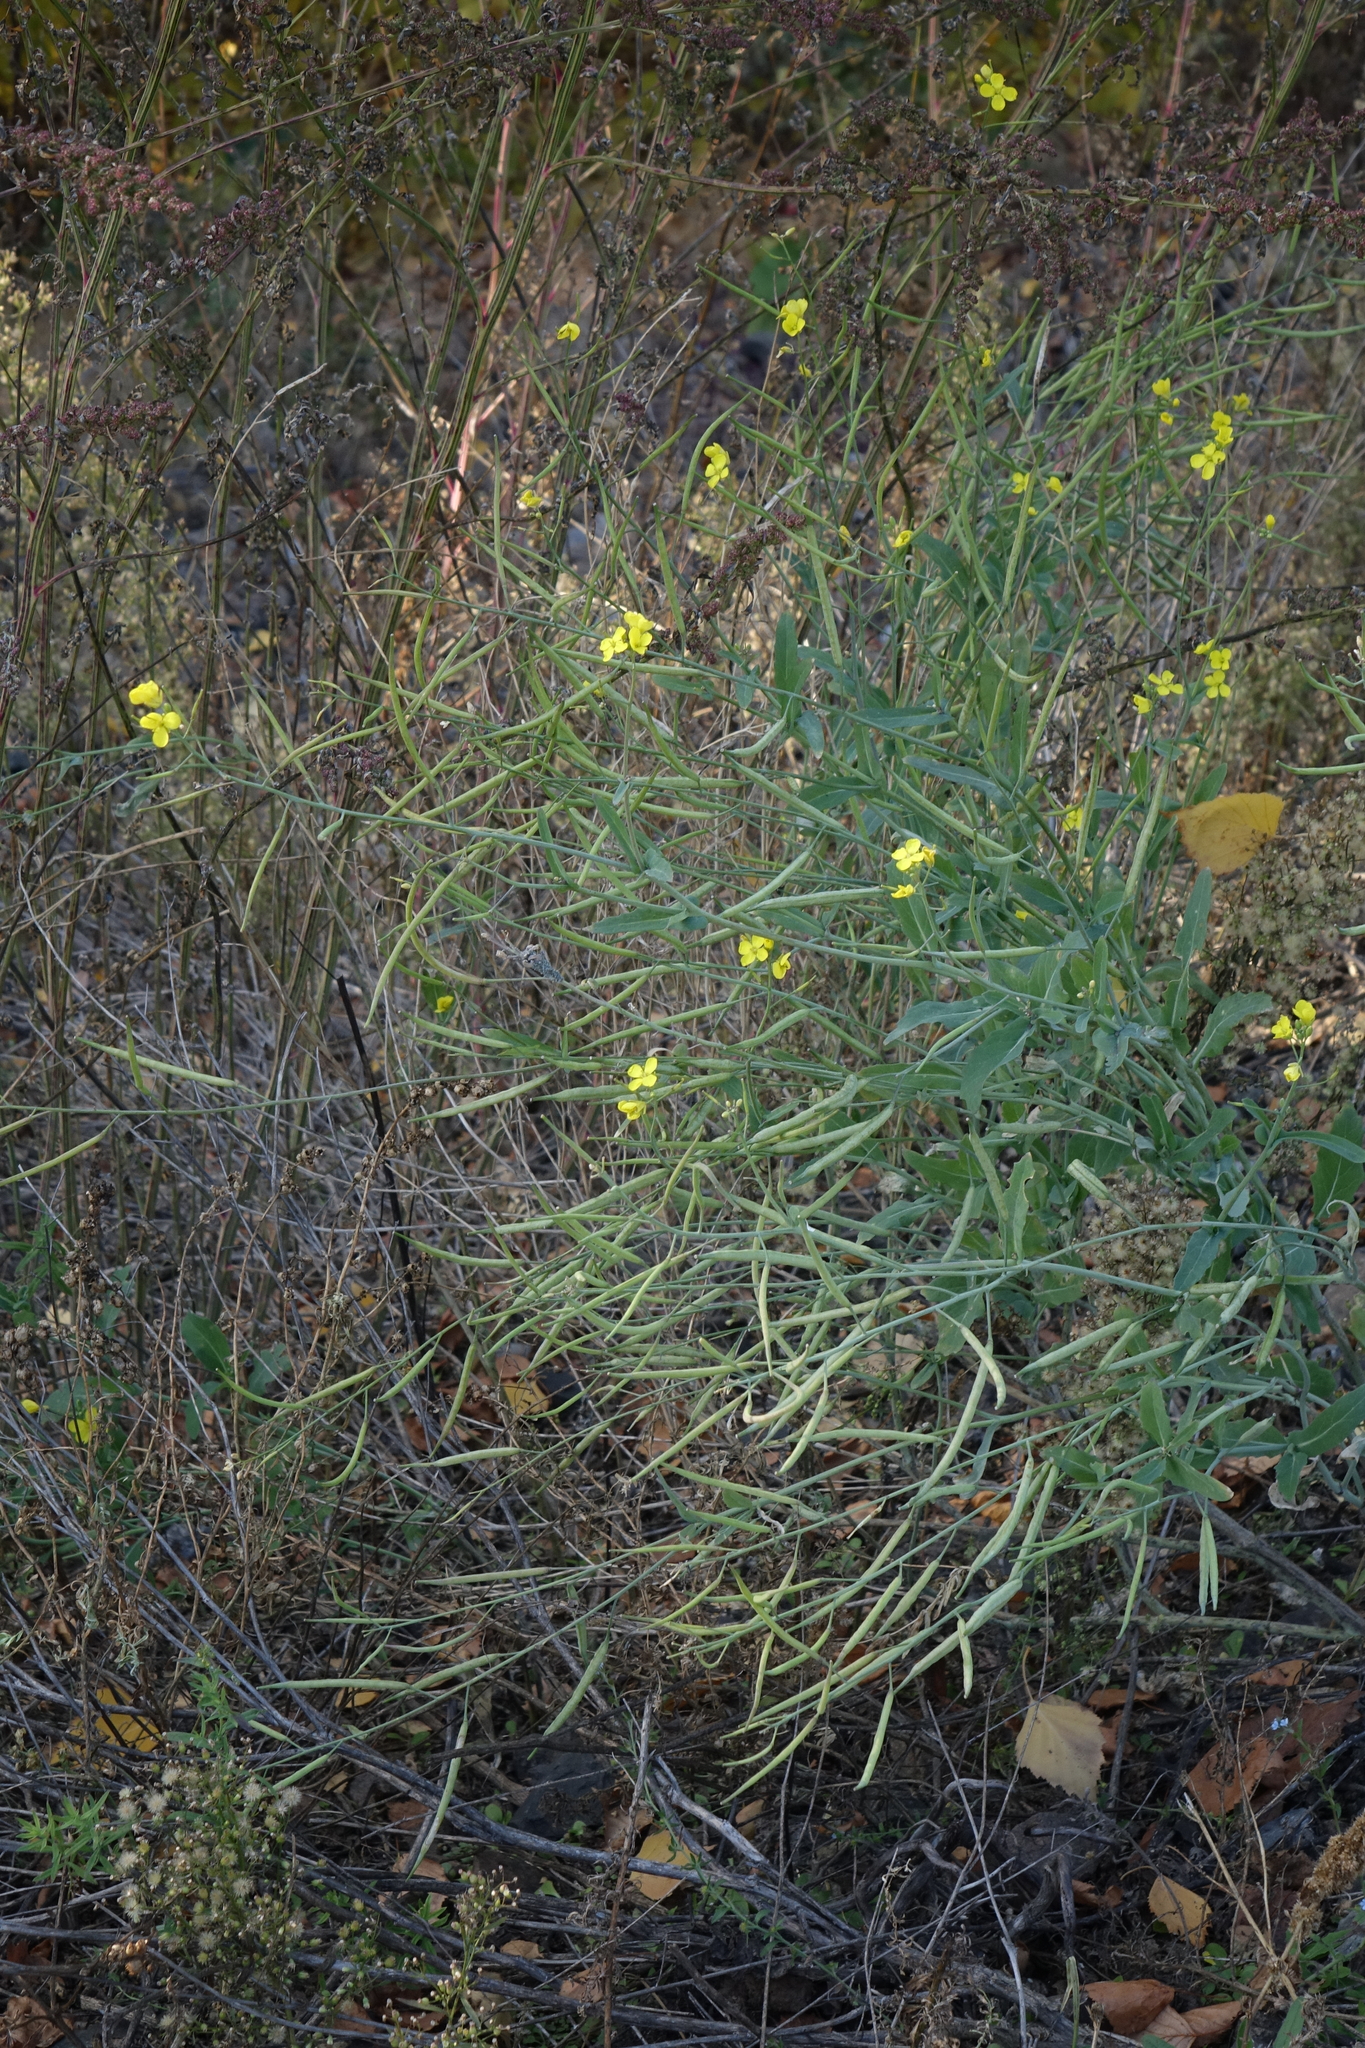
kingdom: Plantae
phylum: Tracheophyta
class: Magnoliopsida
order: Brassicales
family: Brassicaceae
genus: Brassica
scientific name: Brassica napus
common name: Rape
